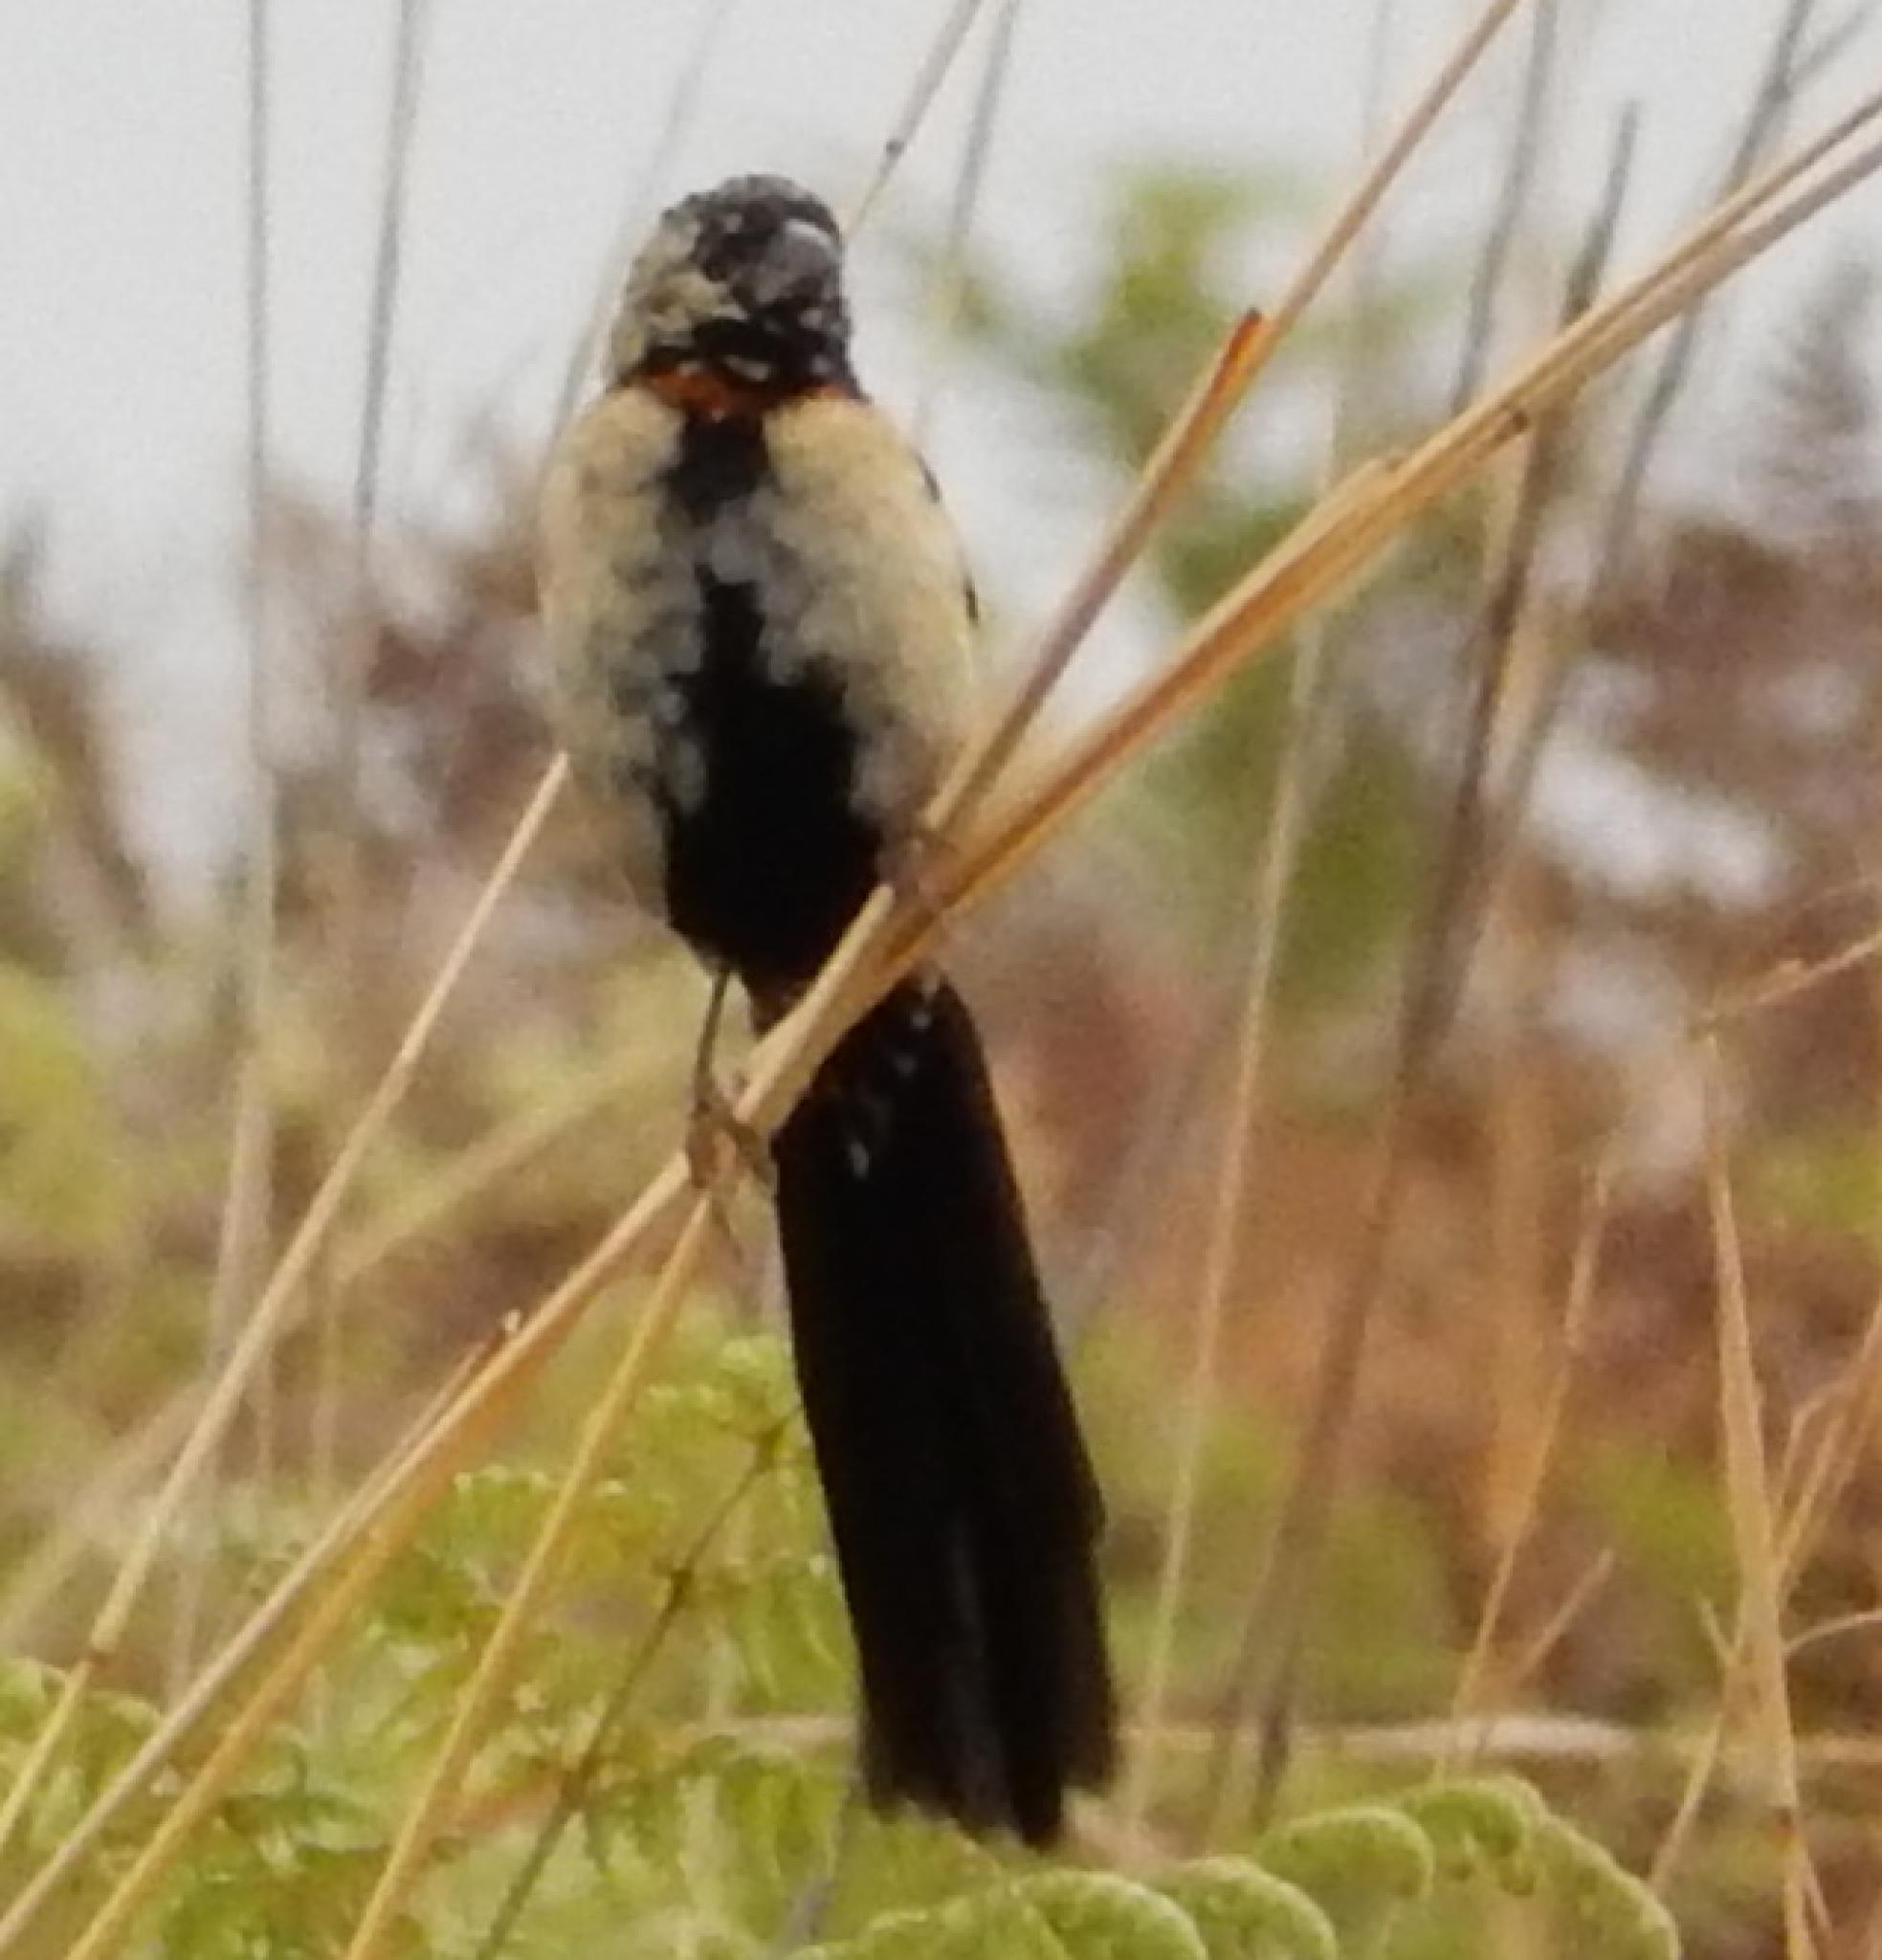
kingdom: Animalia
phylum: Chordata
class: Aves
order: Passeriformes
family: Ploceidae
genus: Euplectes
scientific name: Euplectes ardens
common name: Red-collared widowbird
